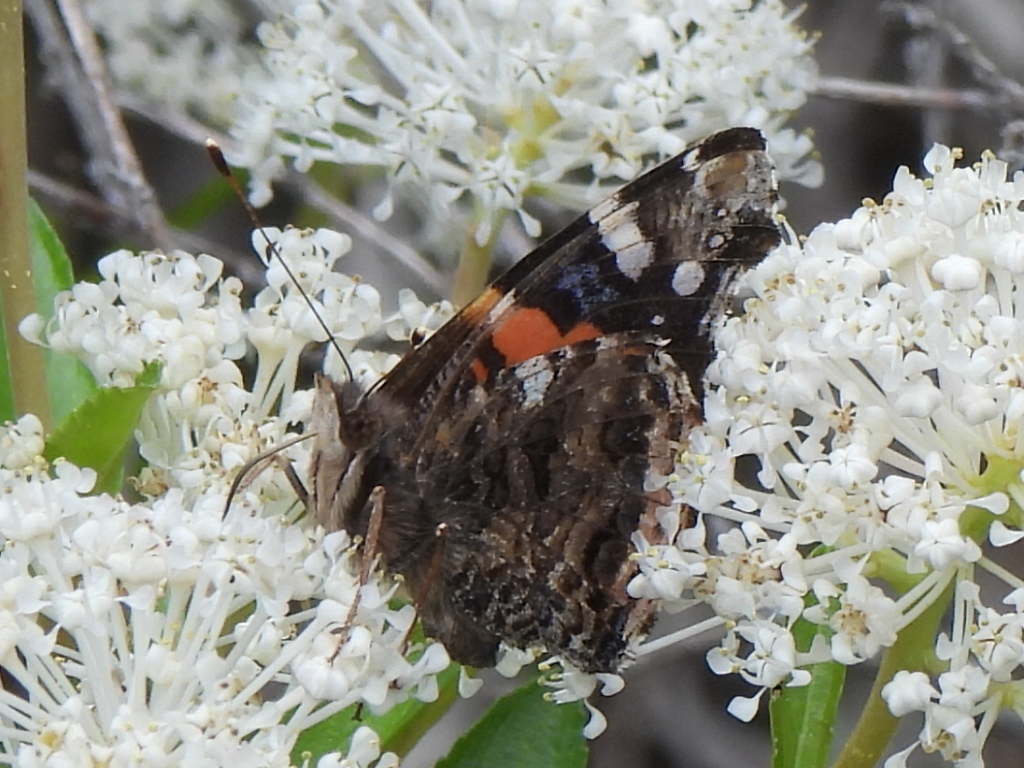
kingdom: Animalia
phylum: Arthropoda
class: Insecta
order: Lepidoptera
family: Nymphalidae
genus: Vanessa
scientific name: Vanessa atalanta
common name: Red admiral
